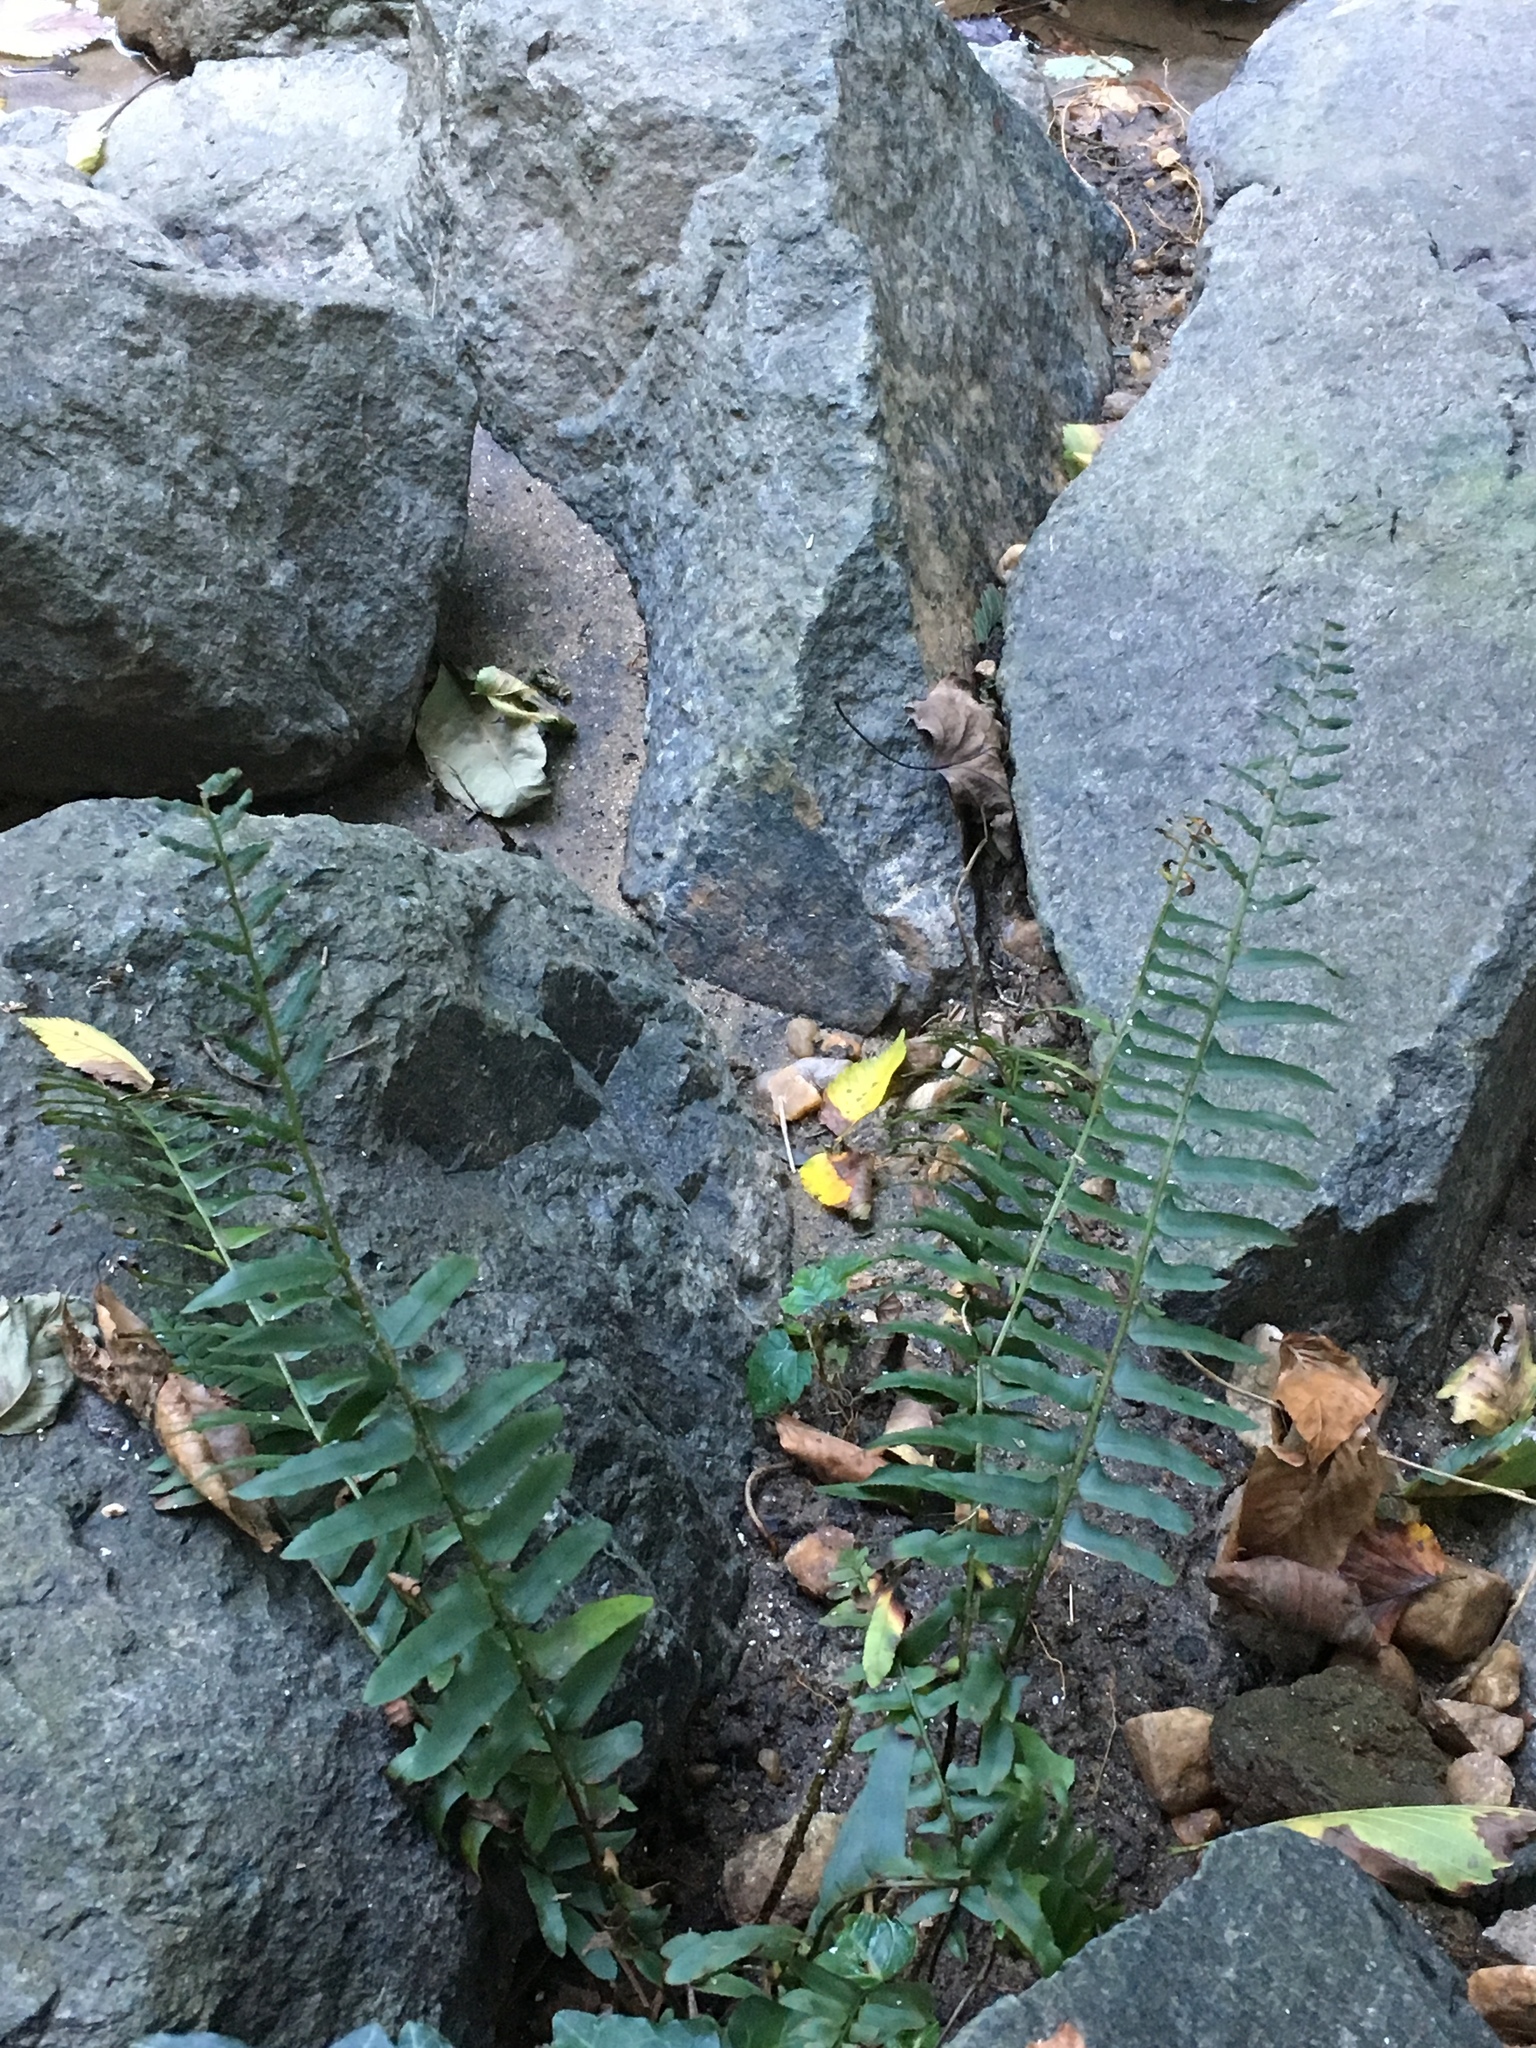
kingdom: Plantae
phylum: Tracheophyta
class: Polypodiopsida
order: Polypodiales
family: Dryopteridaceae
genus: Polystichum
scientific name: Polystichum acrostichoides
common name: Christmas fern
